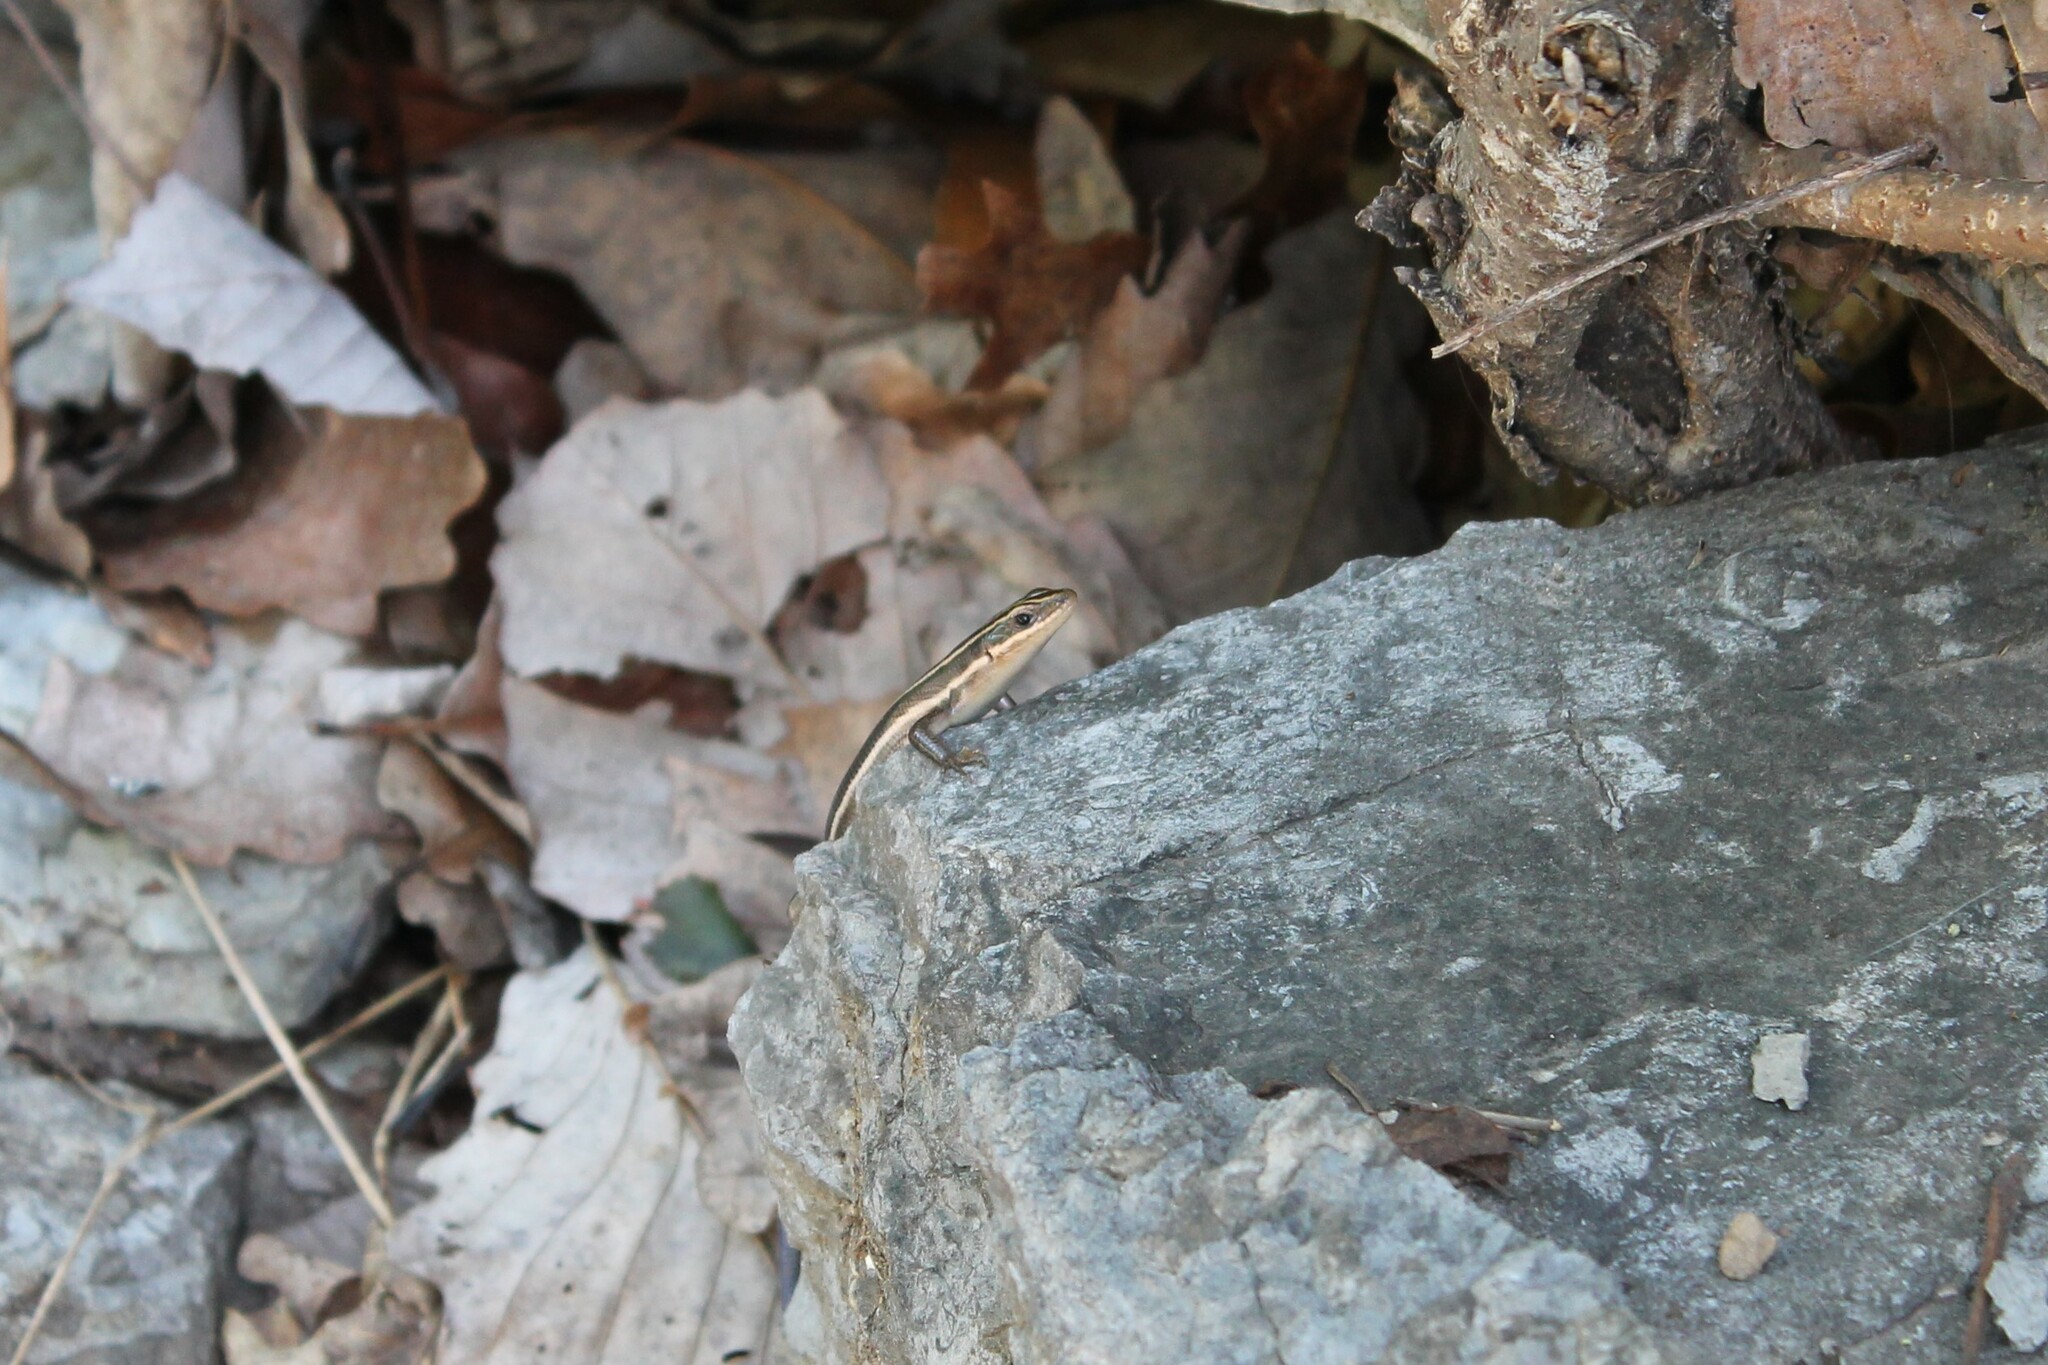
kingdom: Animalia
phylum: Chordata
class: Squamata
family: Scincidae
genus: Plestiodon
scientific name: Plestiodon fasciatus
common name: Five-lined skink
